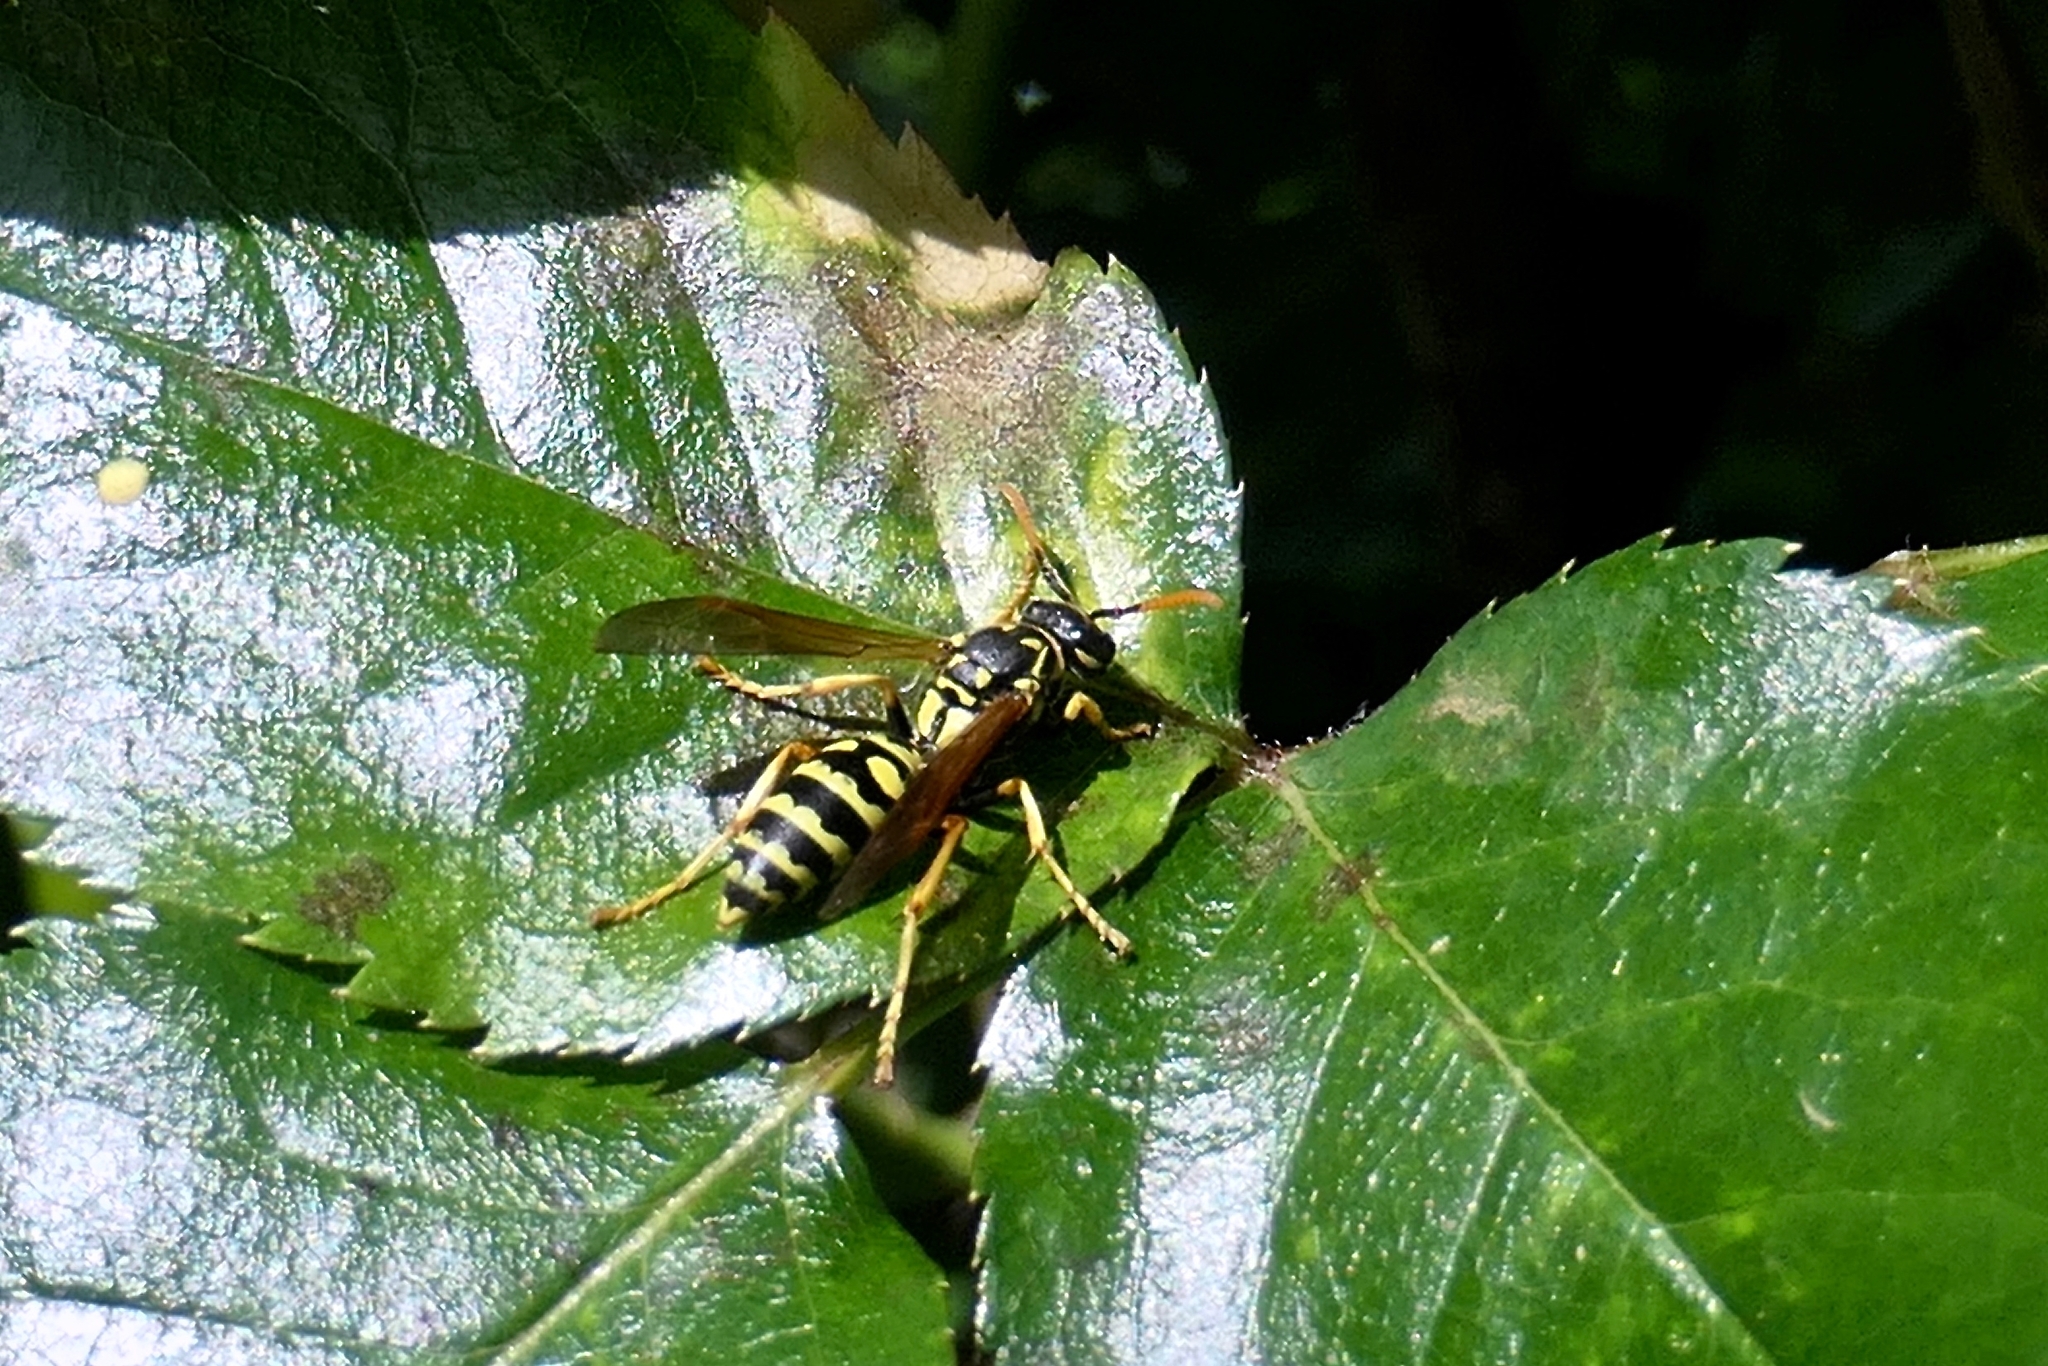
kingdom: Animalia
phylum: Arthropoda
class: Insecta
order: Hymenoptera
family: Eumenidae
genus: Polistes
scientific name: Polistes dominula
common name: Paper wasp
